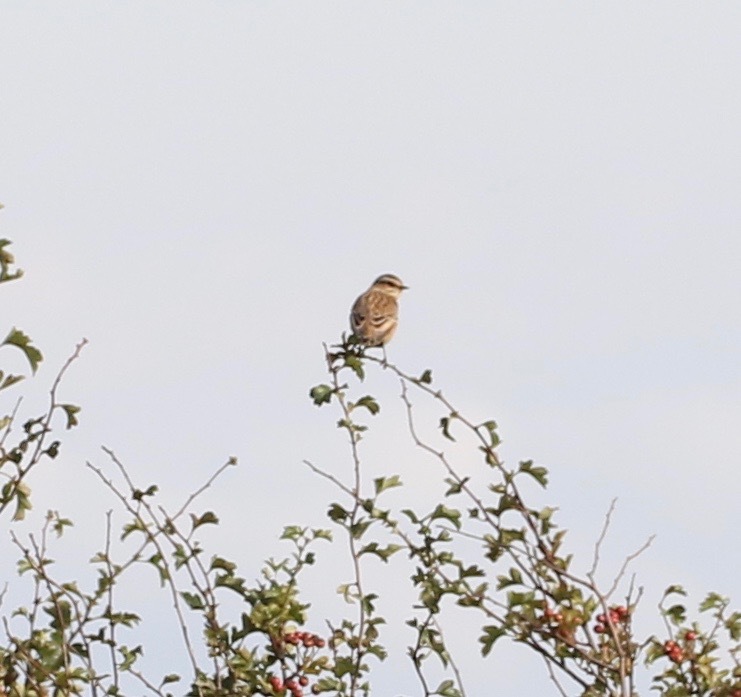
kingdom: Animalia
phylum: Chordata
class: Aves
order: Passeriformes
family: Muscicapidae
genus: Saxicola
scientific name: Saxicola rubetra
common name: Whinchat
